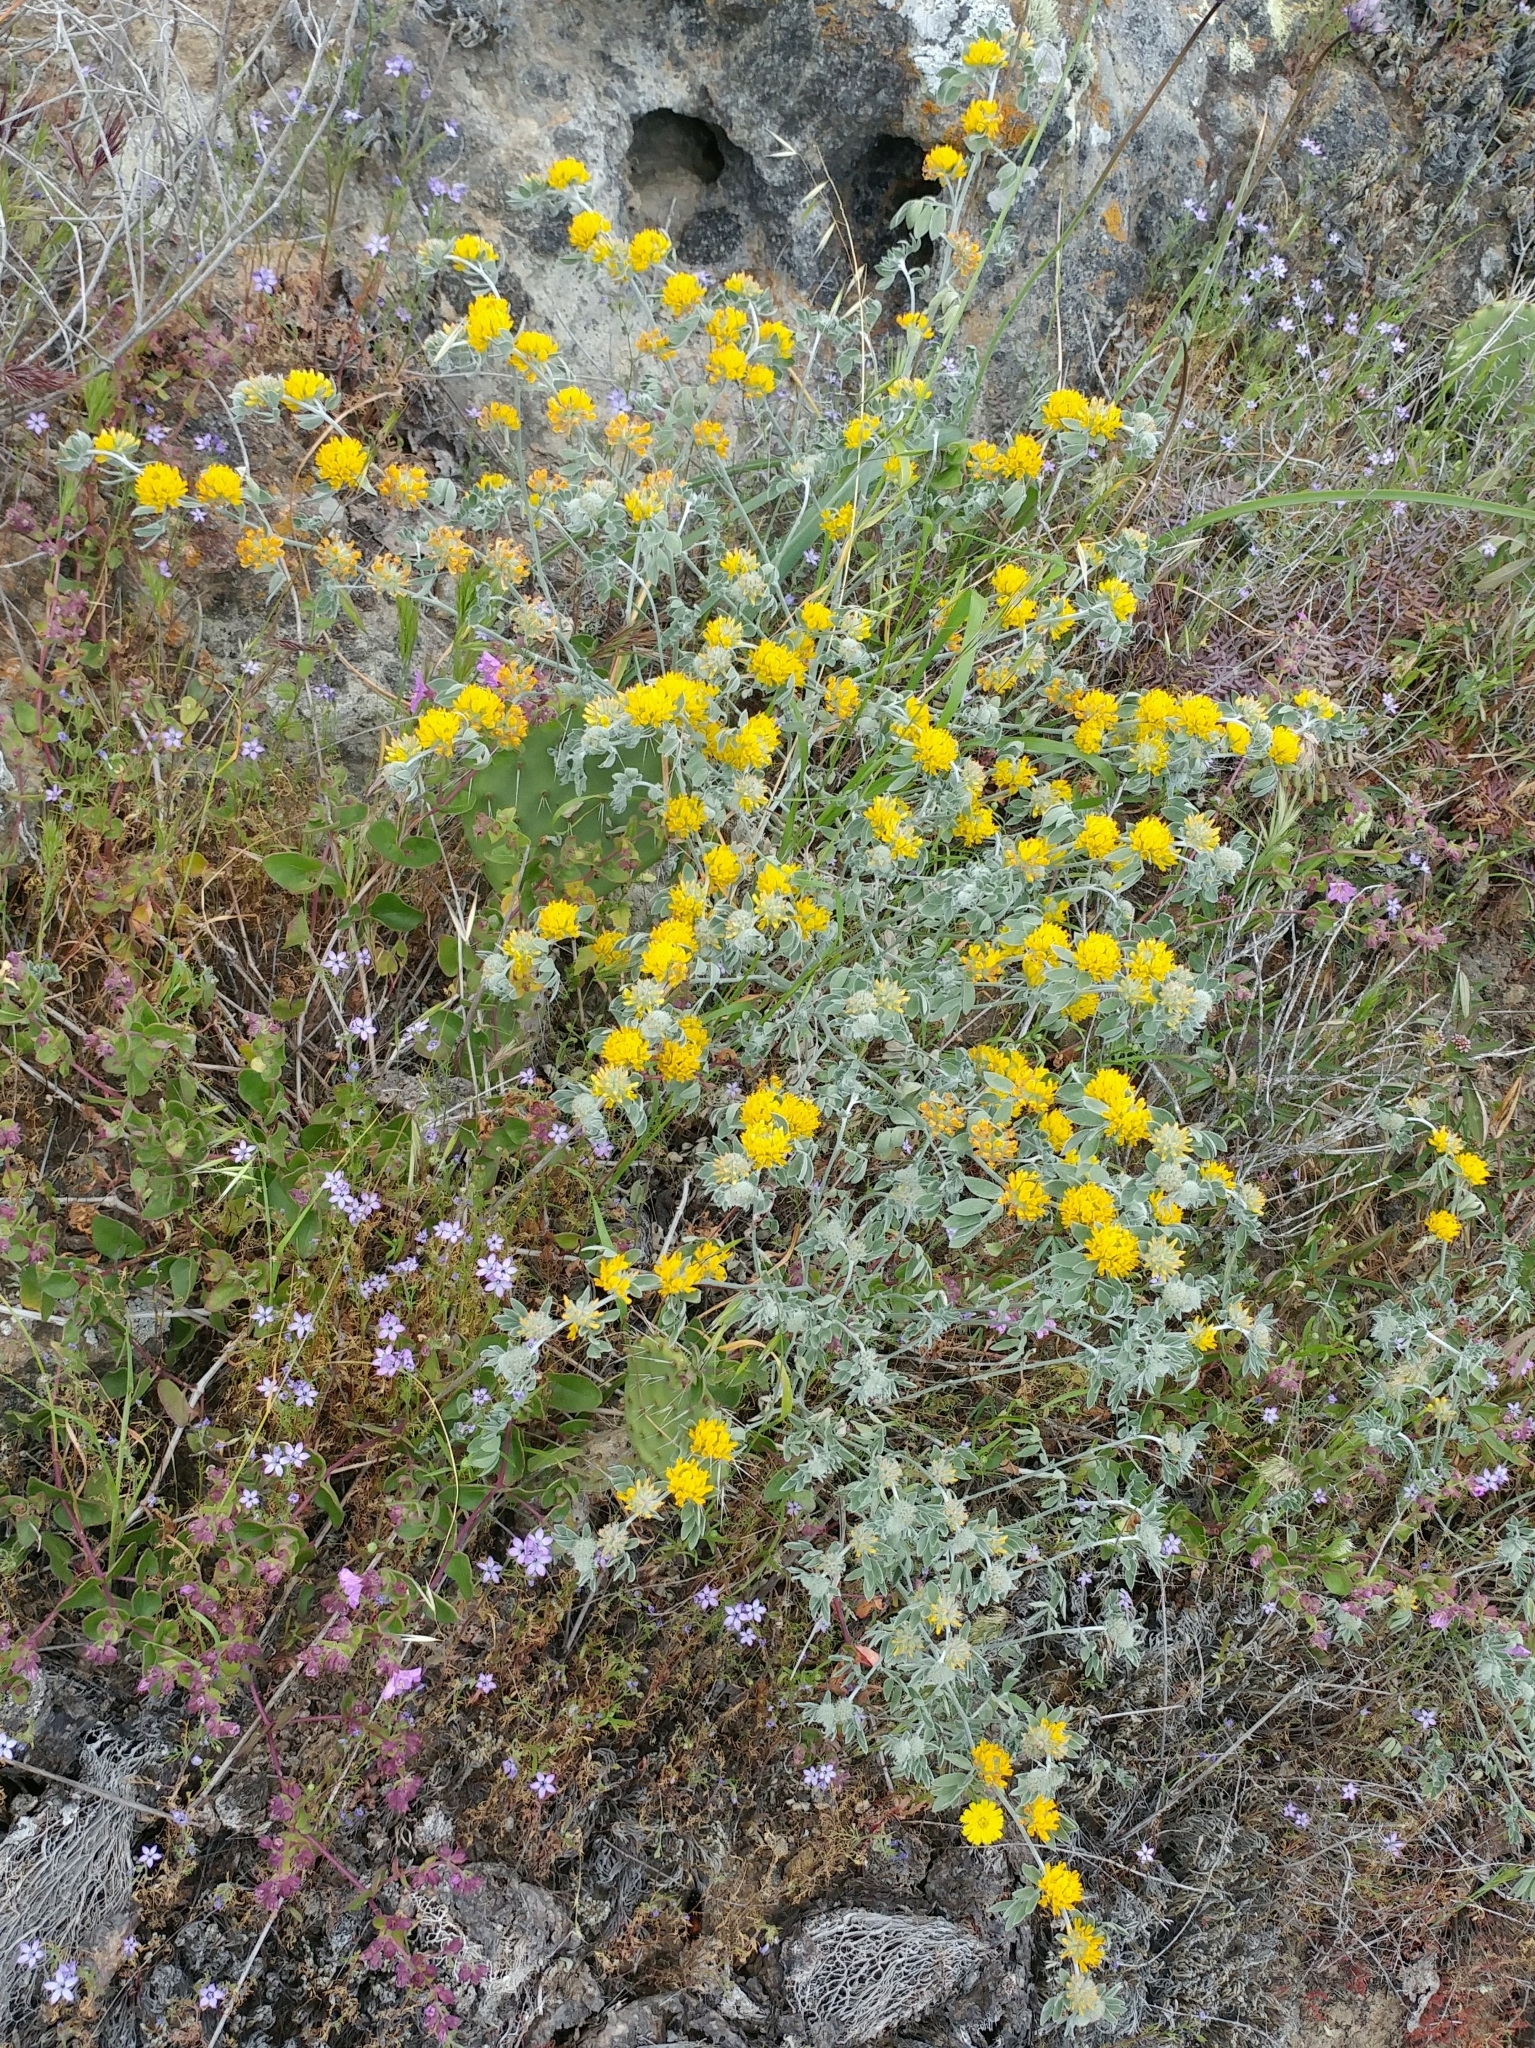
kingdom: Plantae
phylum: Tracheophyta
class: Magnoliopsida
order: Fabales
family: Fabaceae
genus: Acmispon
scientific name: Acmispon argophyllus
